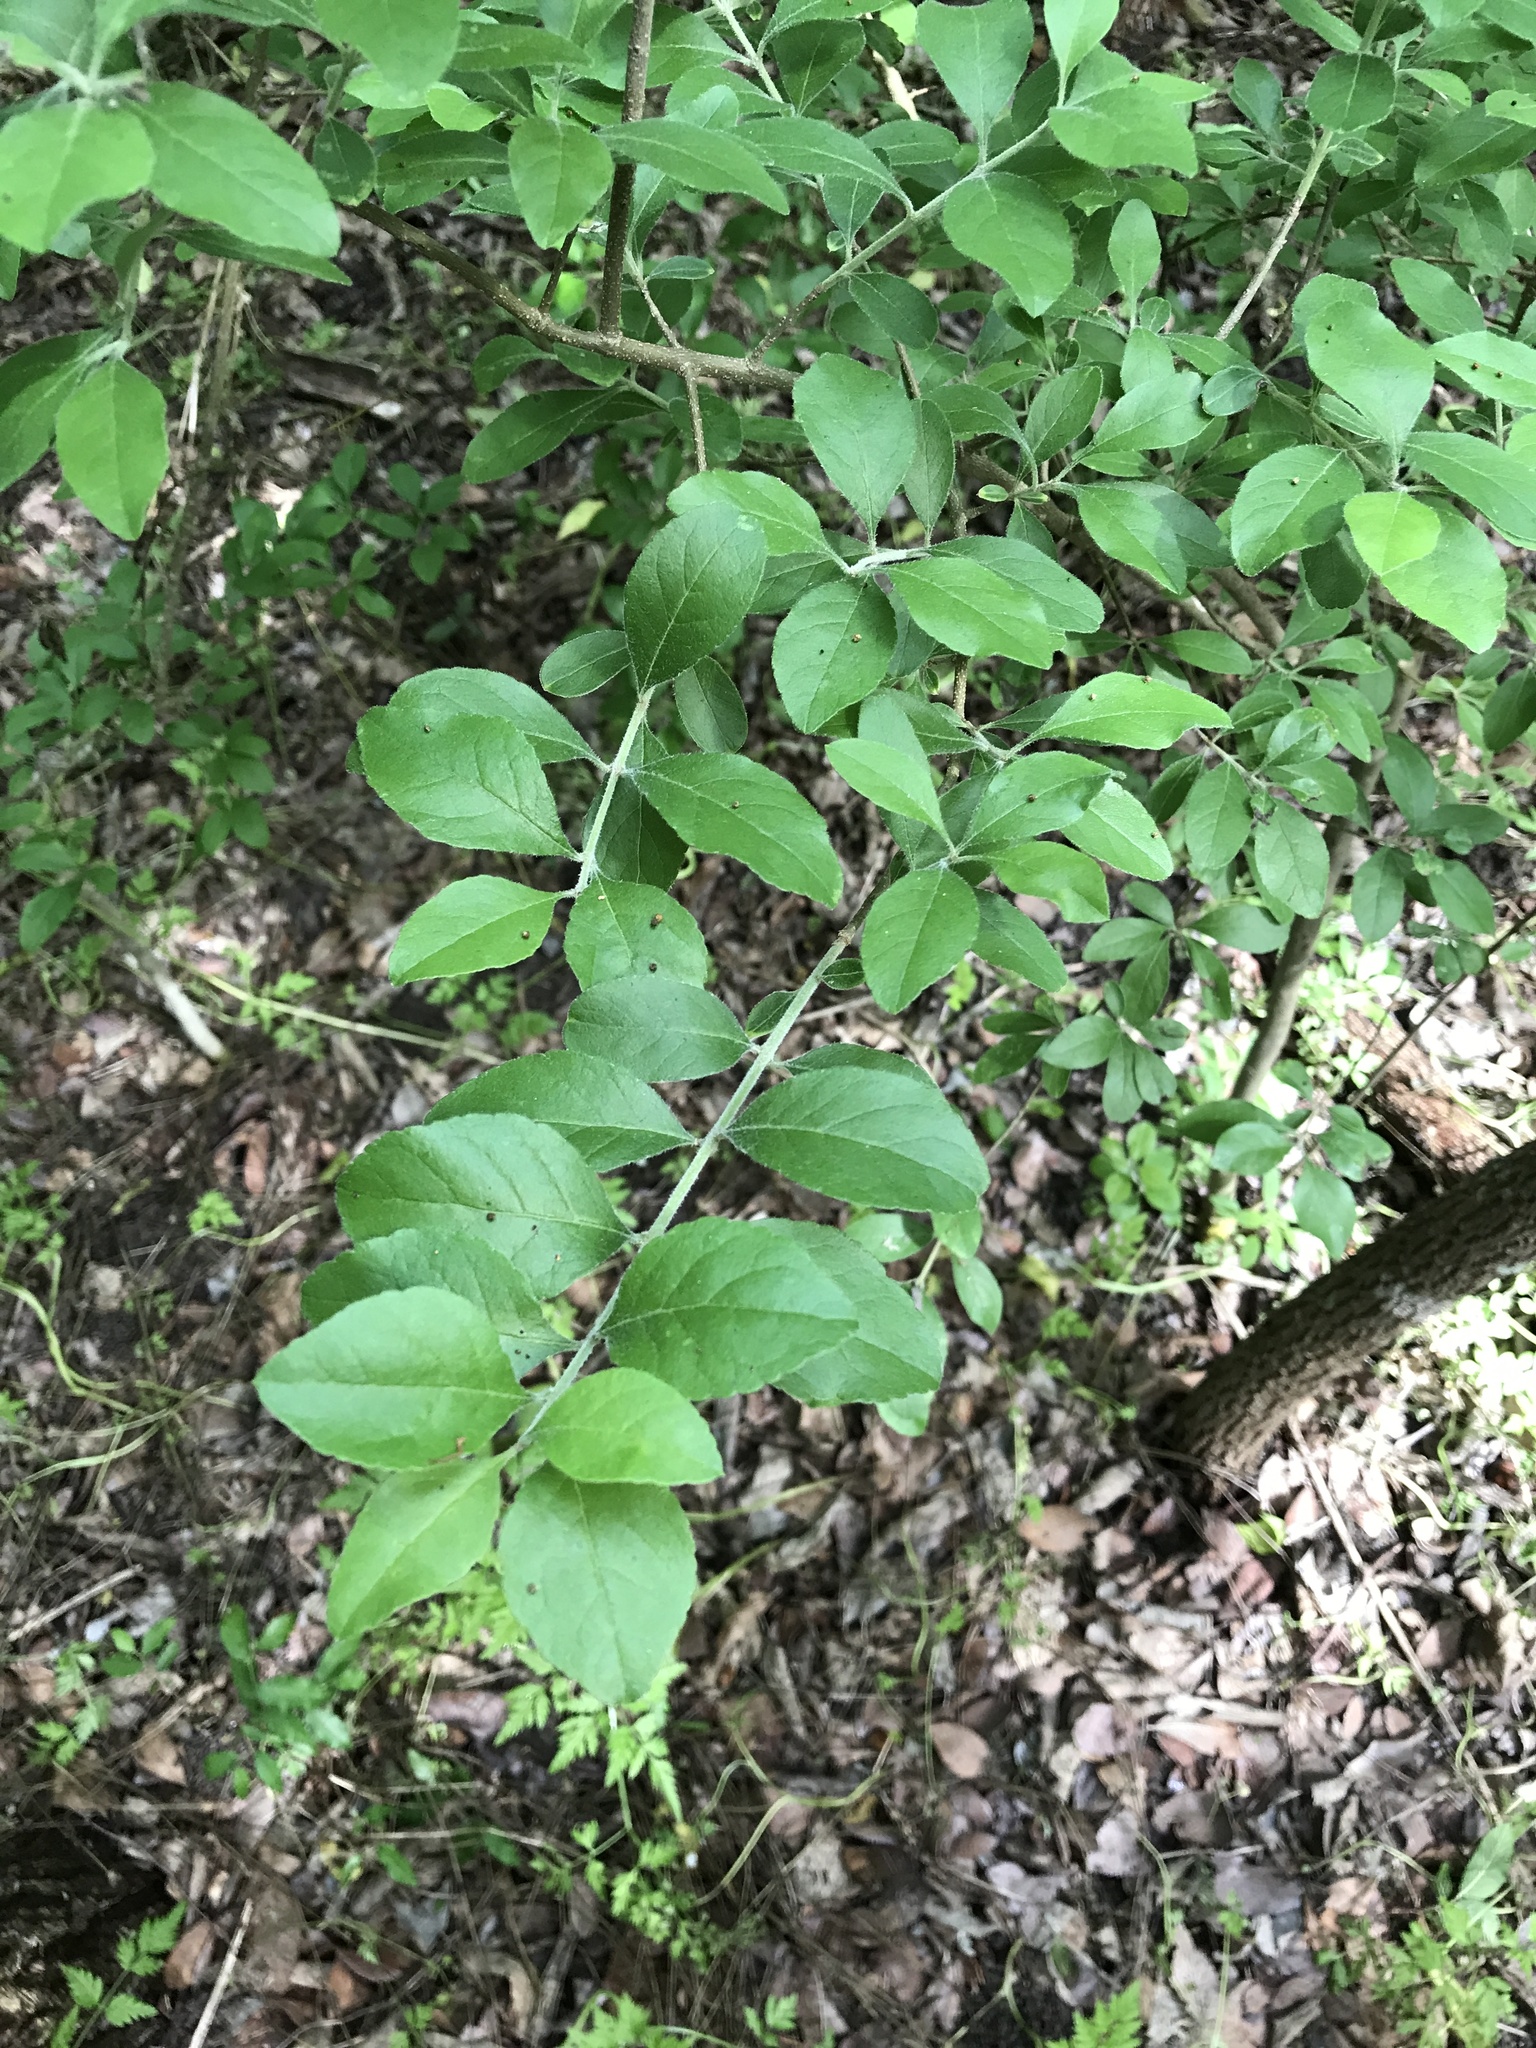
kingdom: Plantae
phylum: Tracheophyta
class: Magnoliopsida
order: Lamiales
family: Oleaceae
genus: Forestiera
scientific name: Forestiera pubescens
